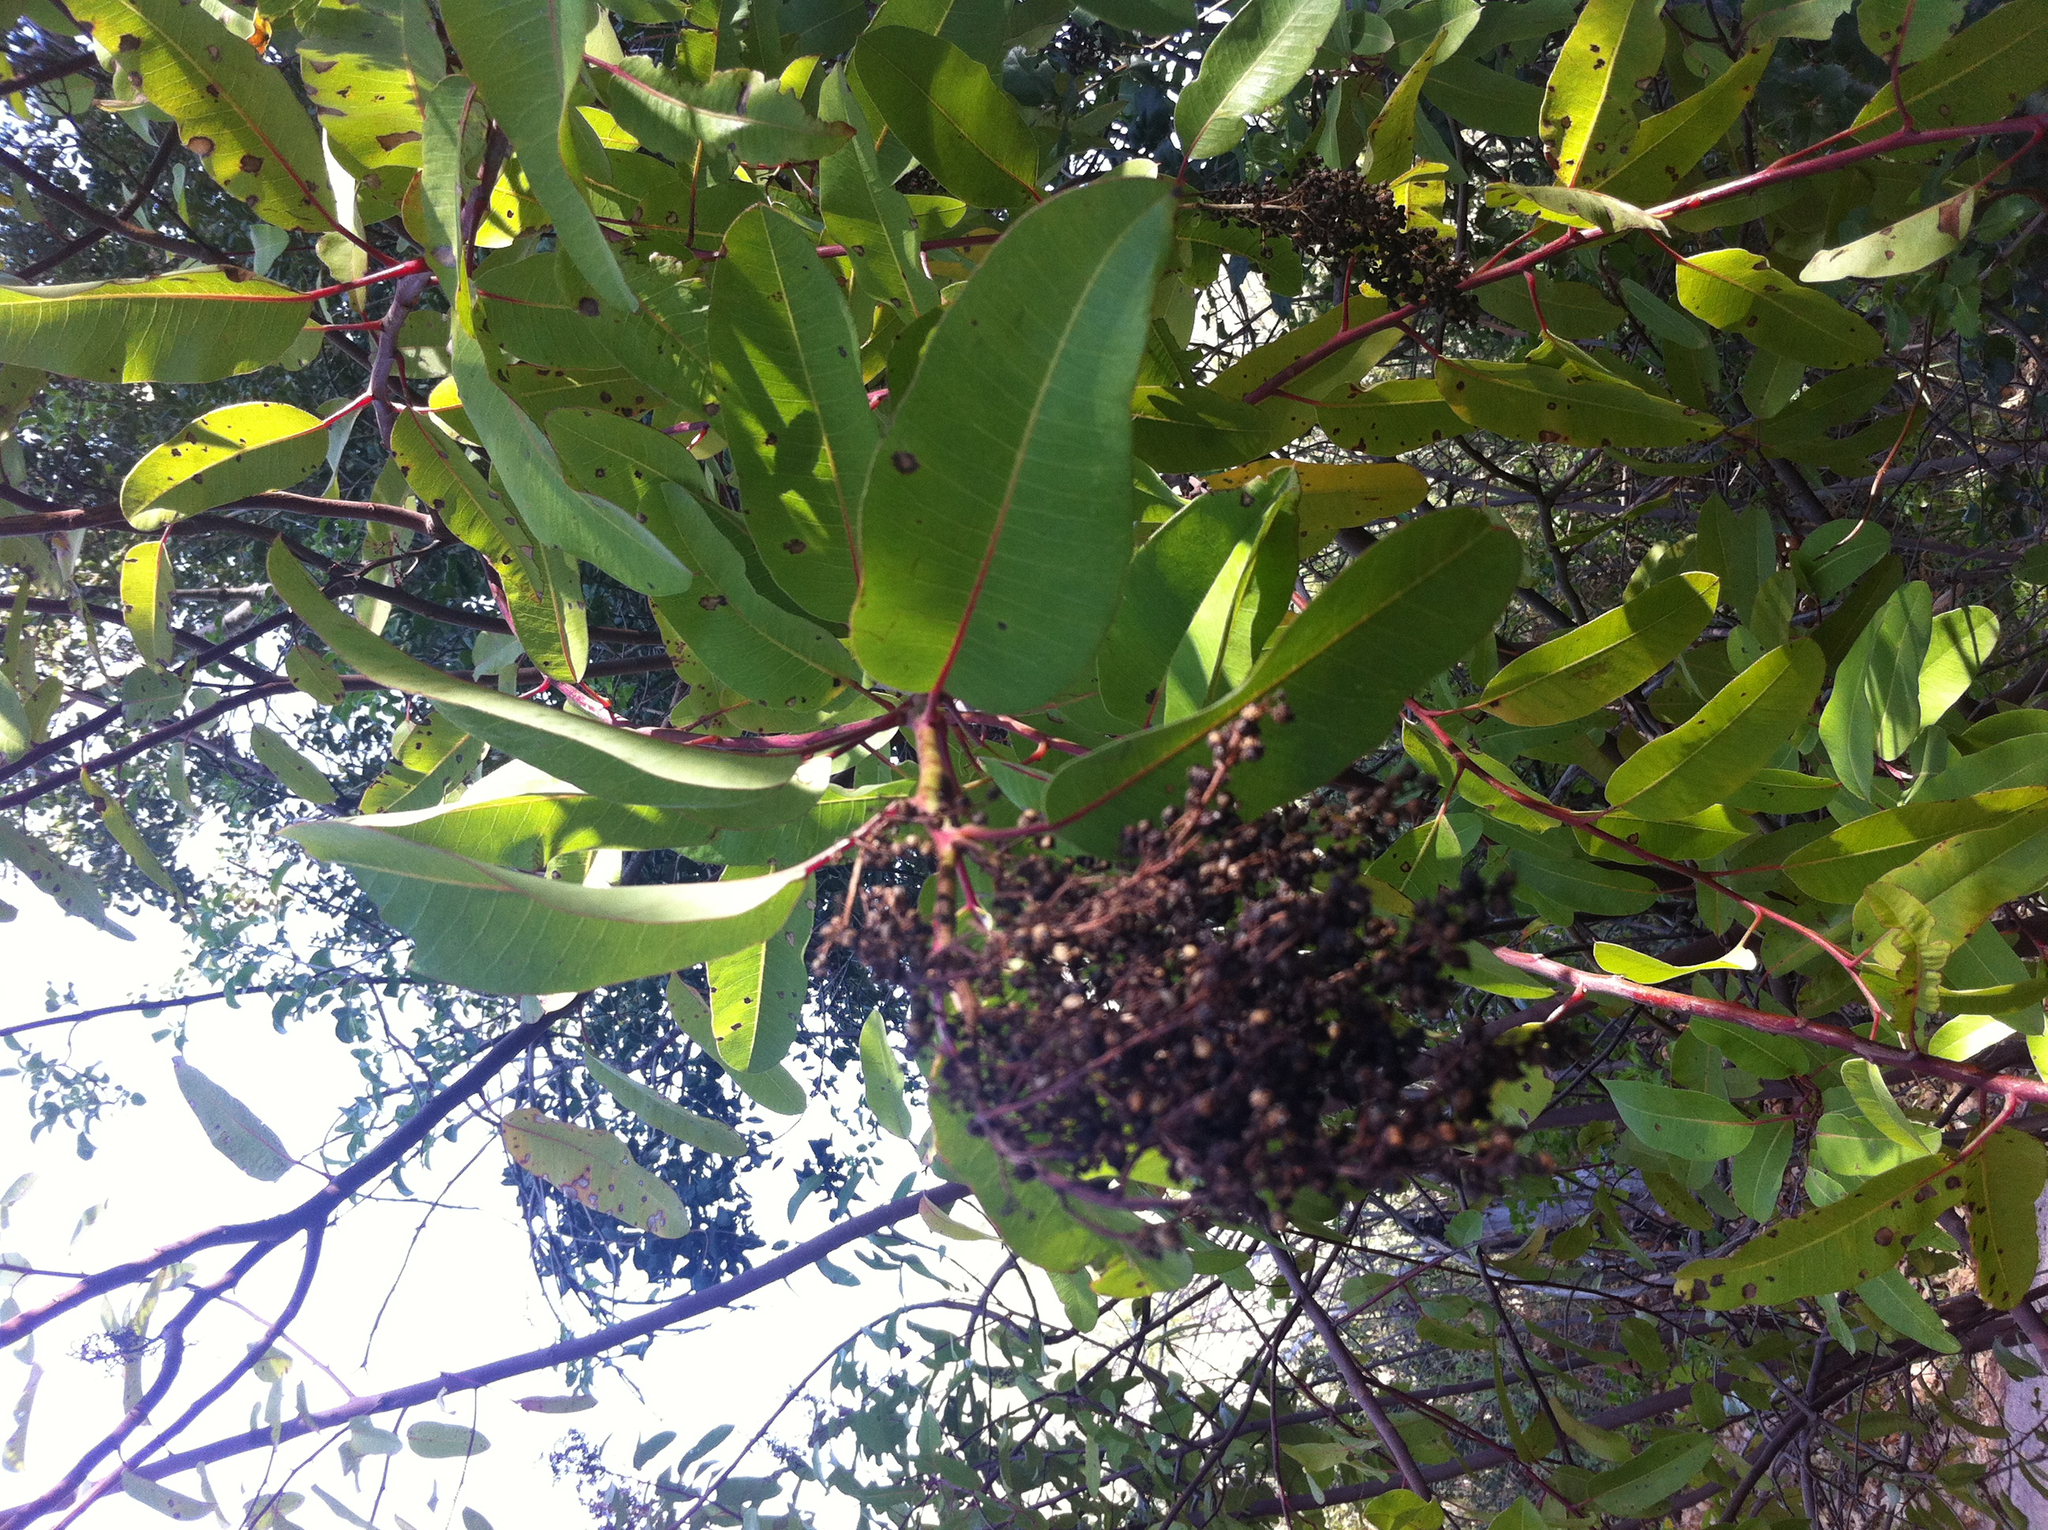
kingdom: Plantae
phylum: Tracheophyta
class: Magnoliopsida
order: Sapindales
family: Anacardiaceae
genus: Malosma
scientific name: Malosma laurina
